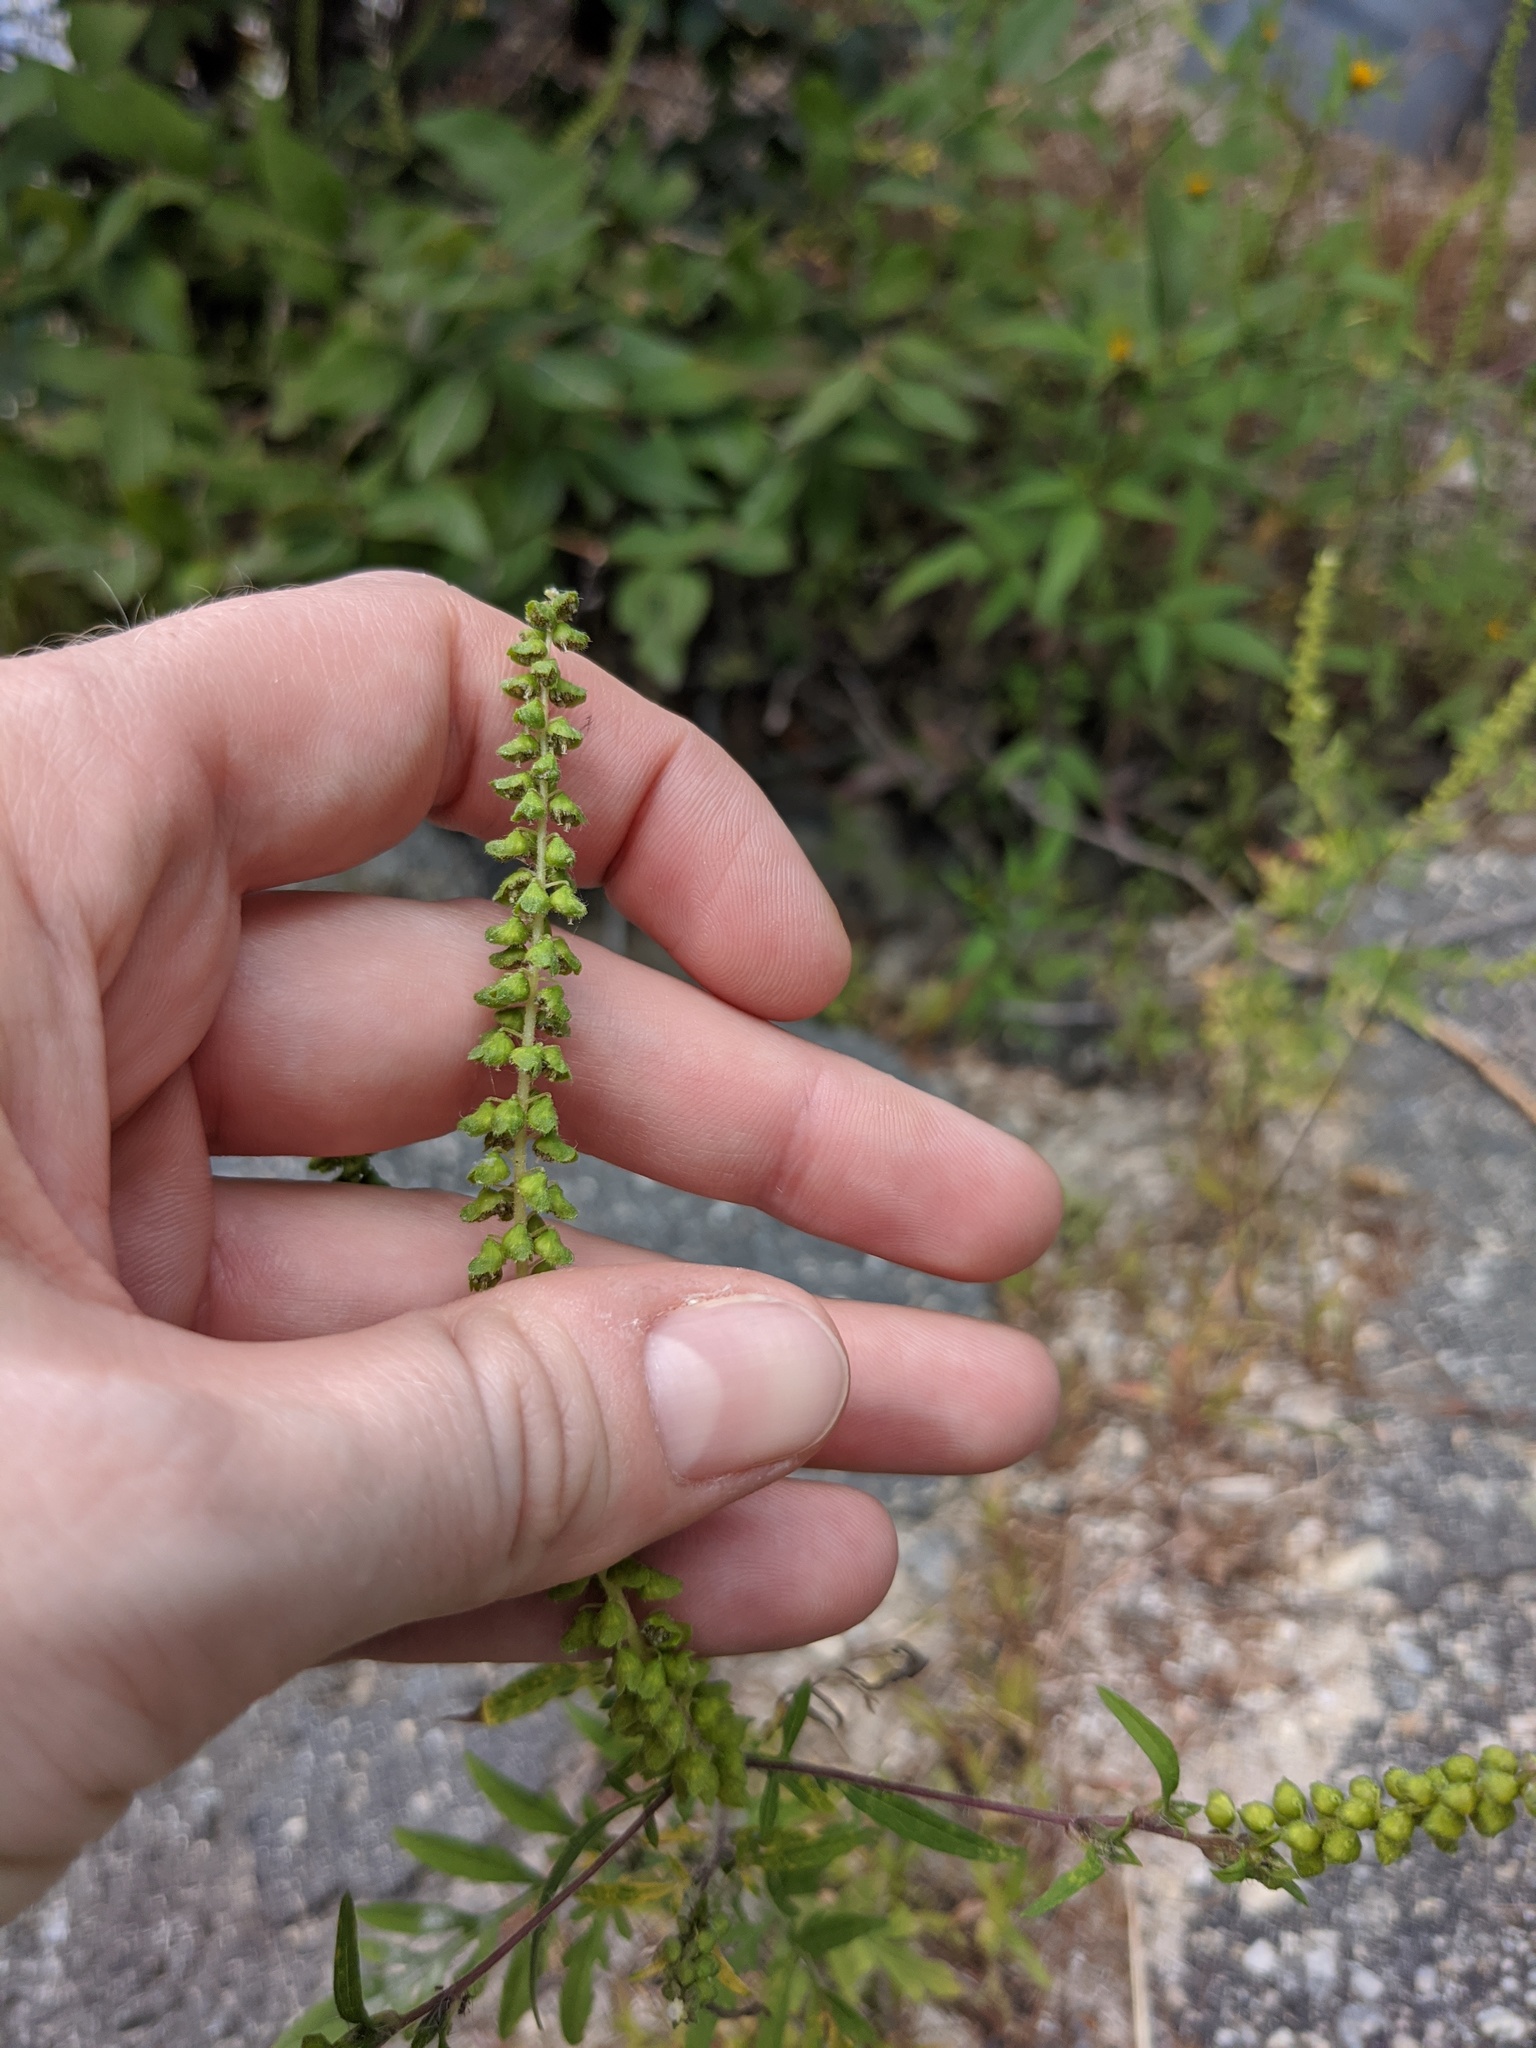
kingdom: Plantae
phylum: Tracheophyta
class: Magnoliopsida
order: Asterales
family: Asteraceae
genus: Ambrosia
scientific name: Ambrosia artemisiifolia
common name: Annual ragweed
